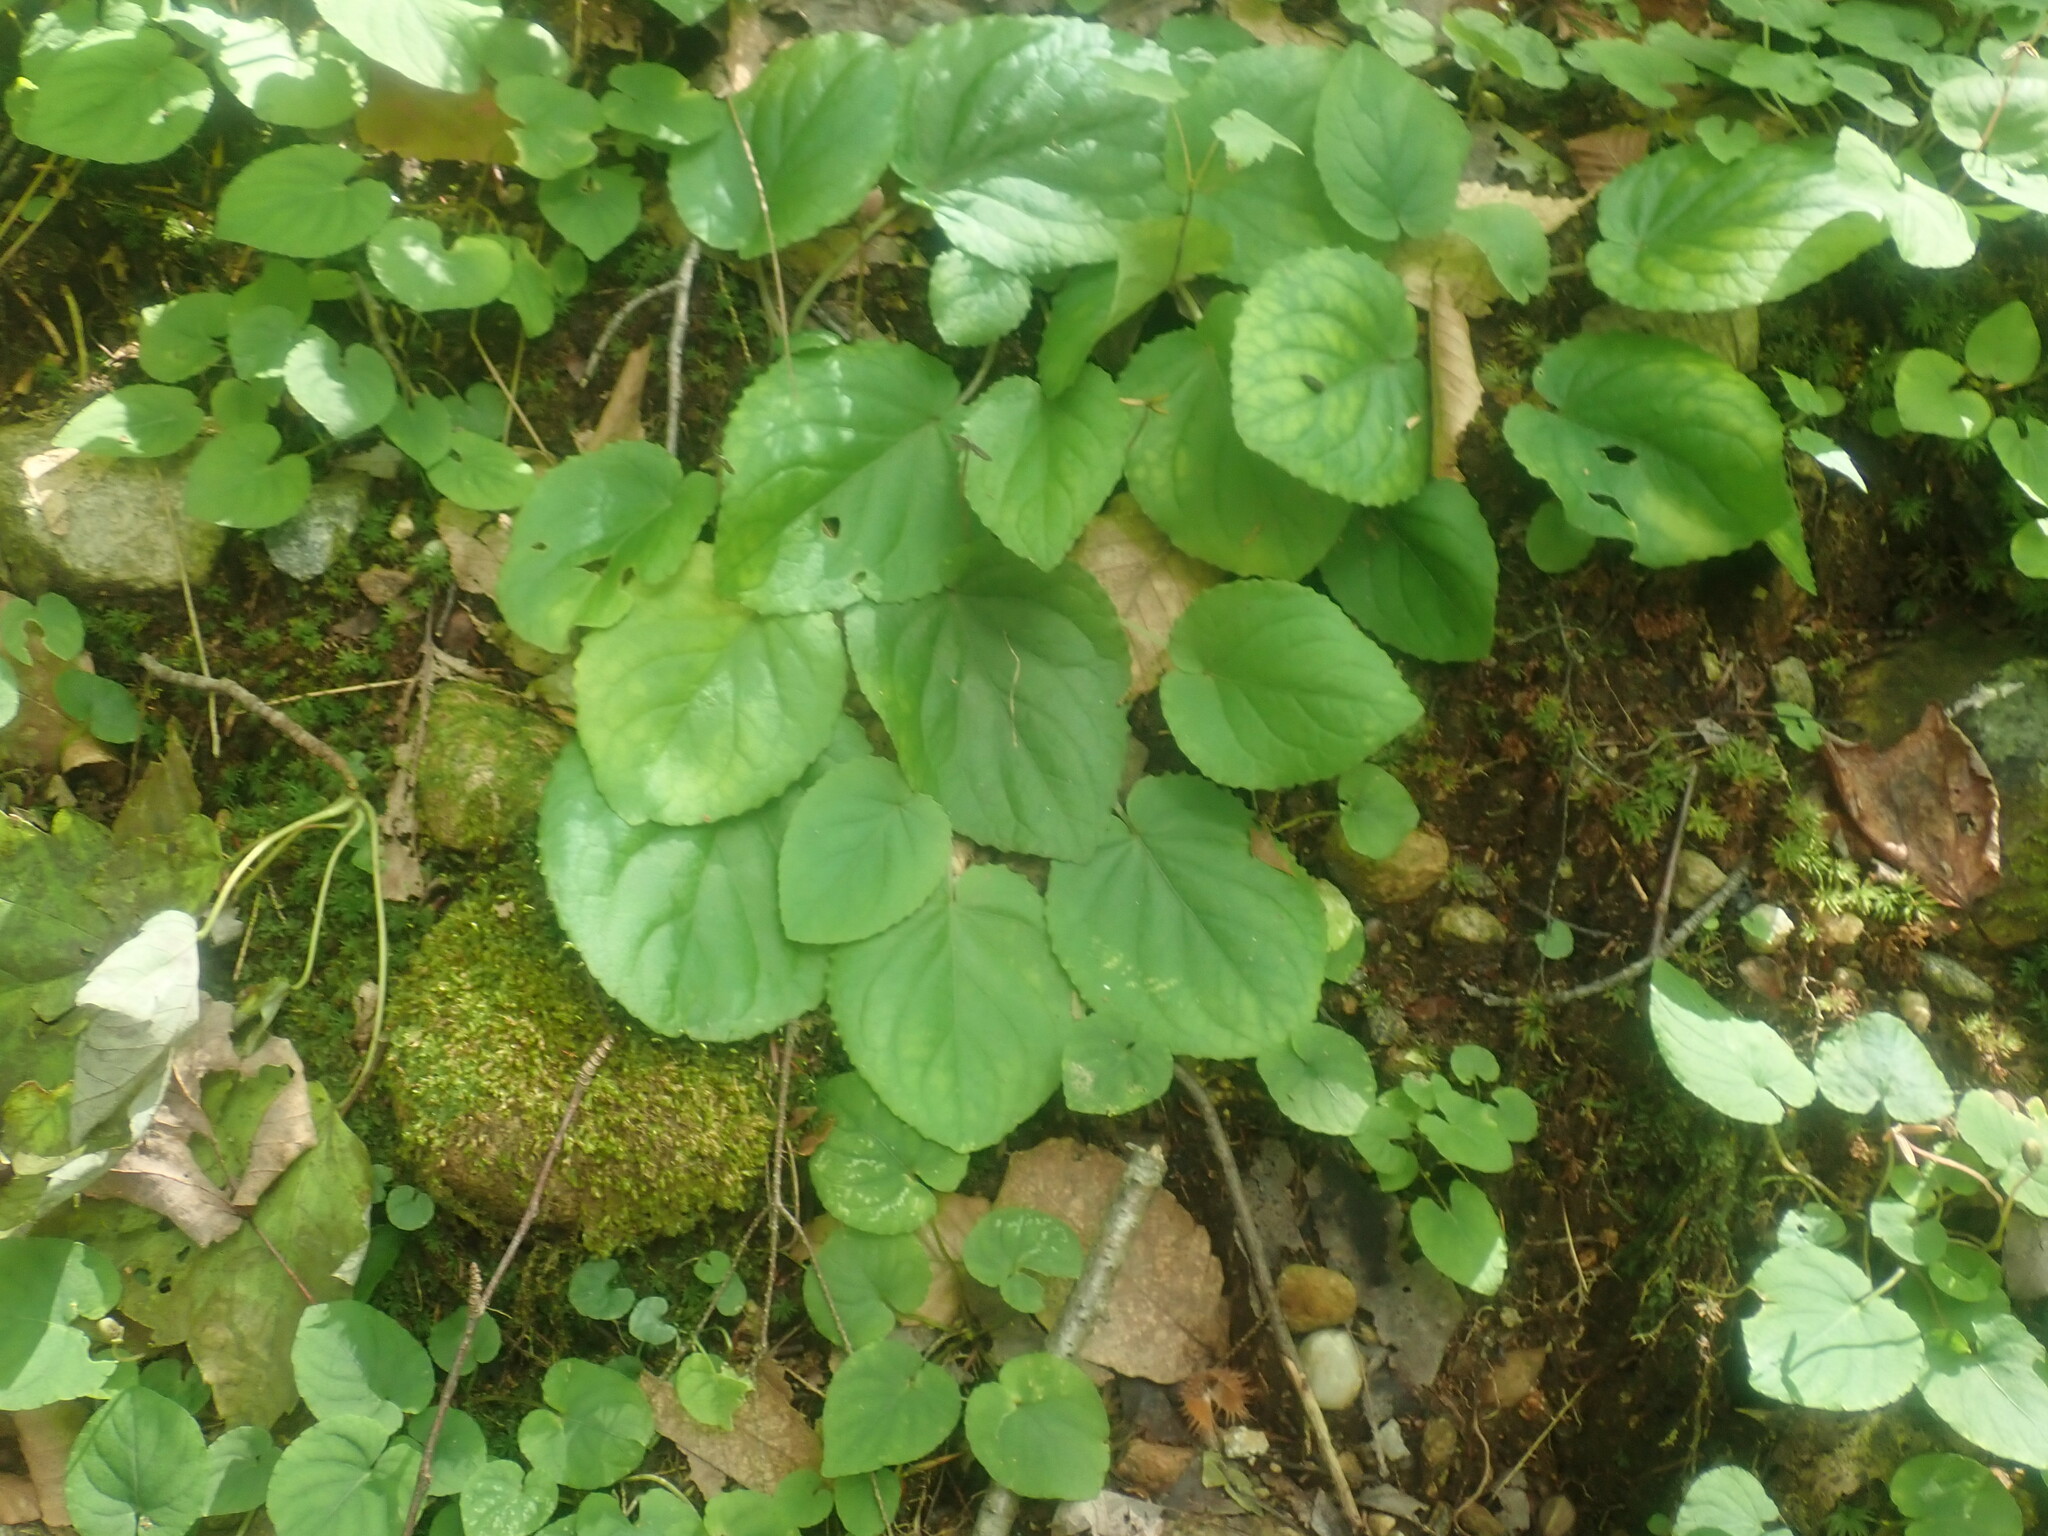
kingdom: Plantae
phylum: Tracheophyta
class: Magnoliopsida
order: Malpighiales
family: Violaceae
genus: Viola
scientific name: Viola rotundifolia
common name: Early yellow violet
